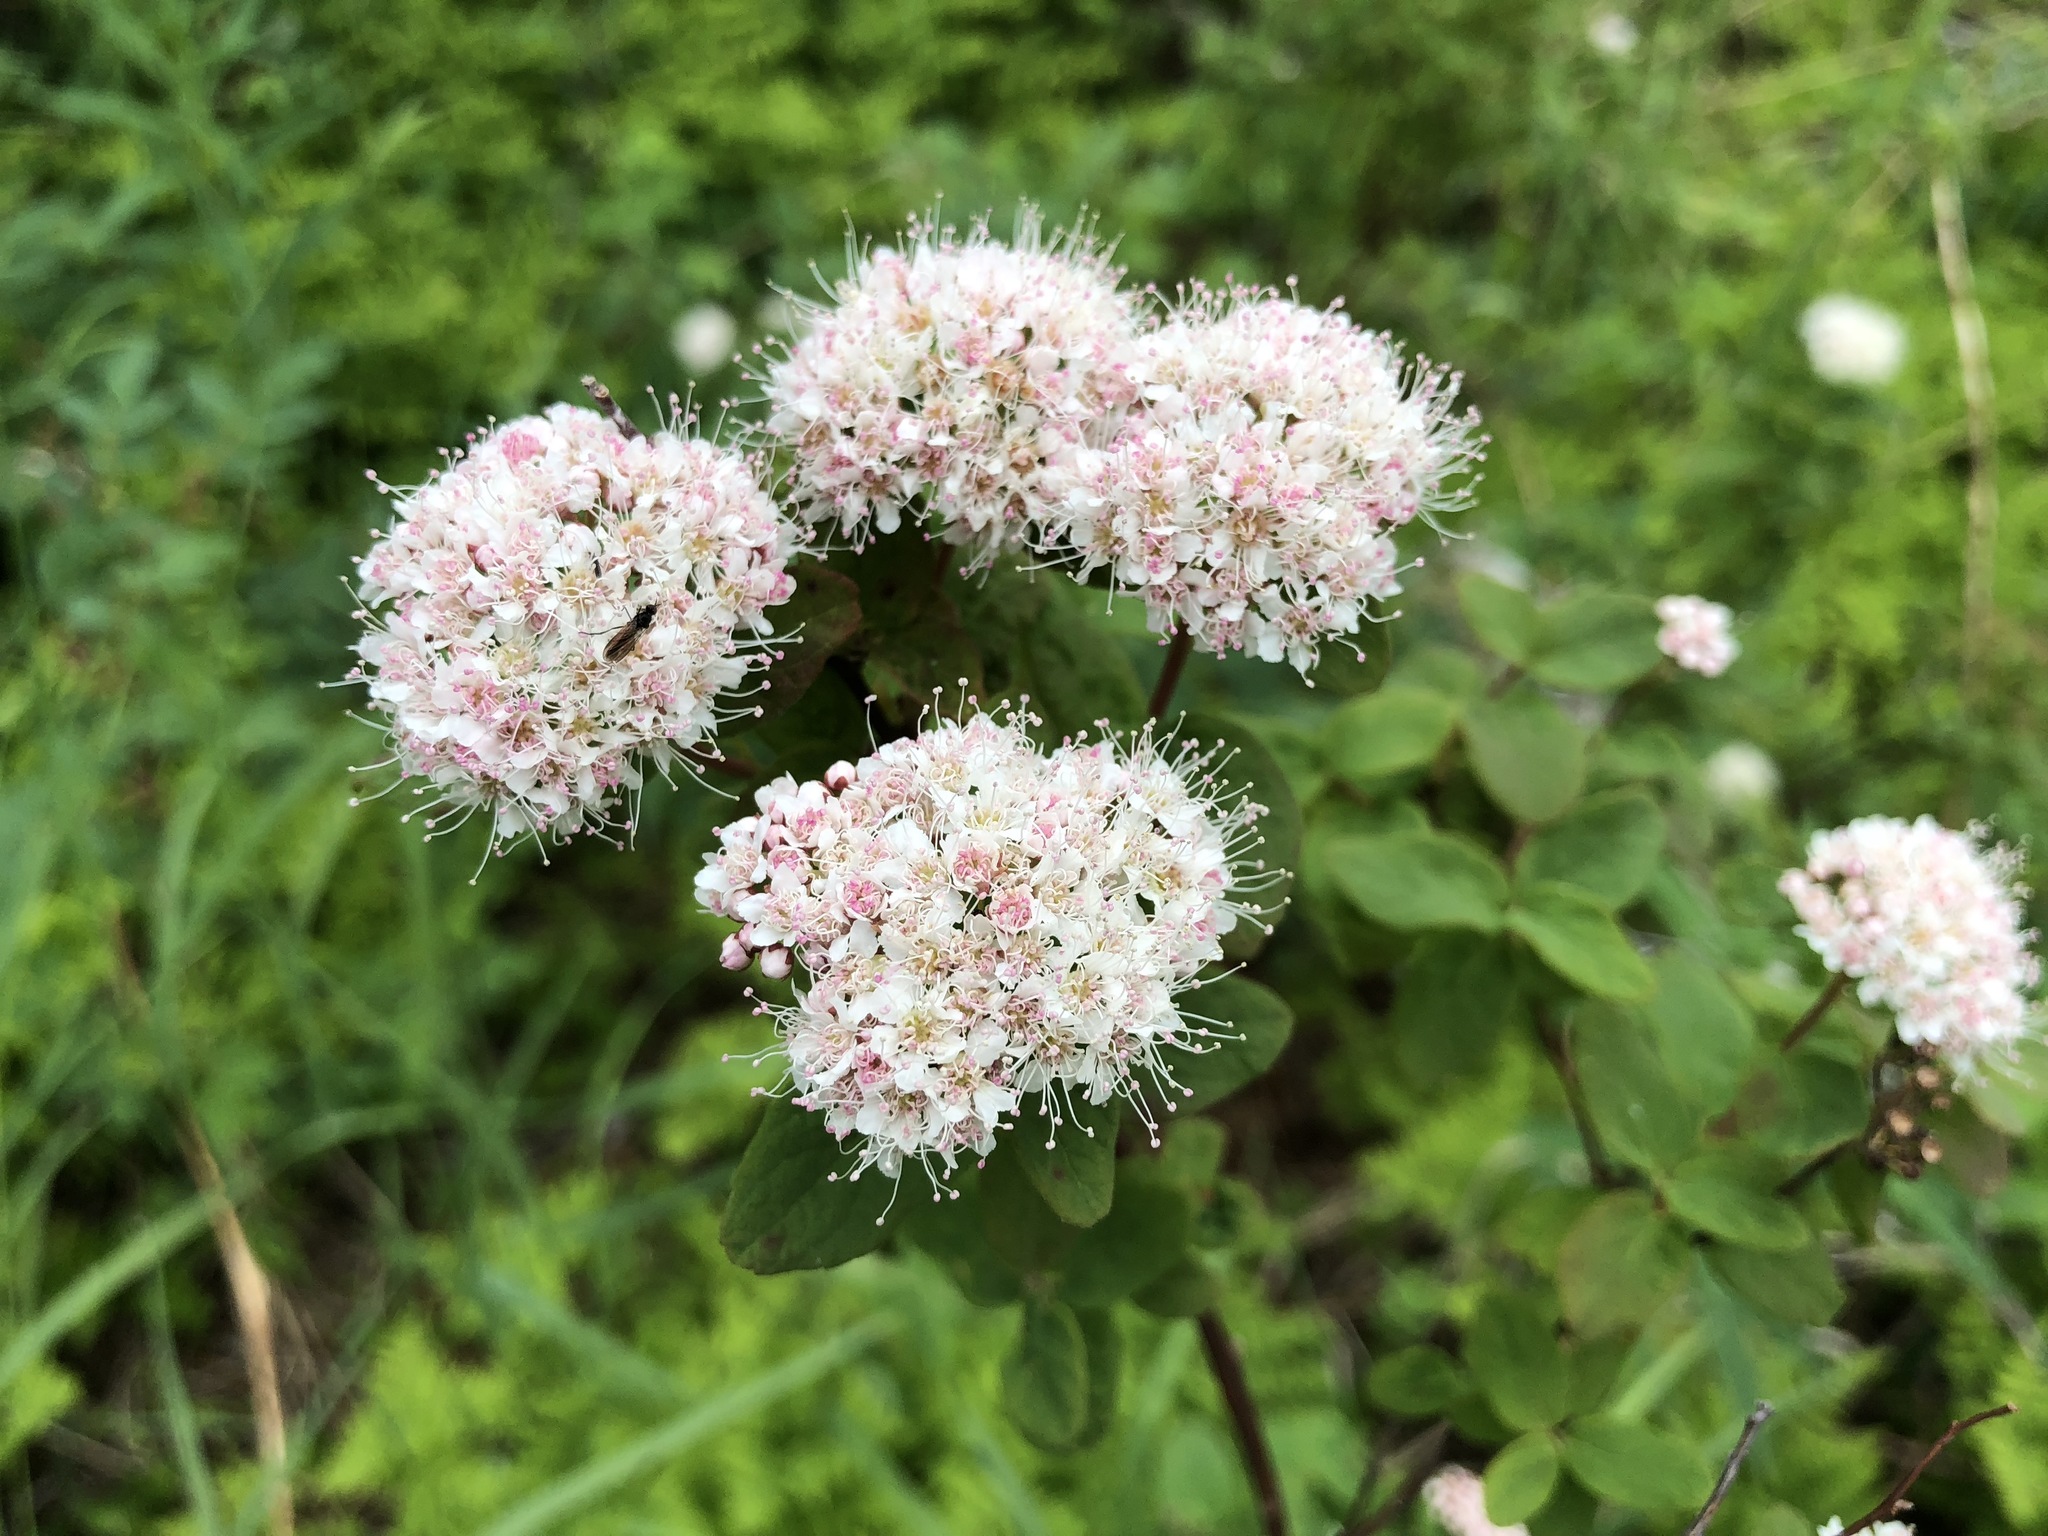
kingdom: Plantae
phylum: Tracheophyta
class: Magnoliopsida
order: Rosales
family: Rosaceae
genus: Spiraea
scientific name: Spiraea stevenii
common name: Steven's meadowsweet
